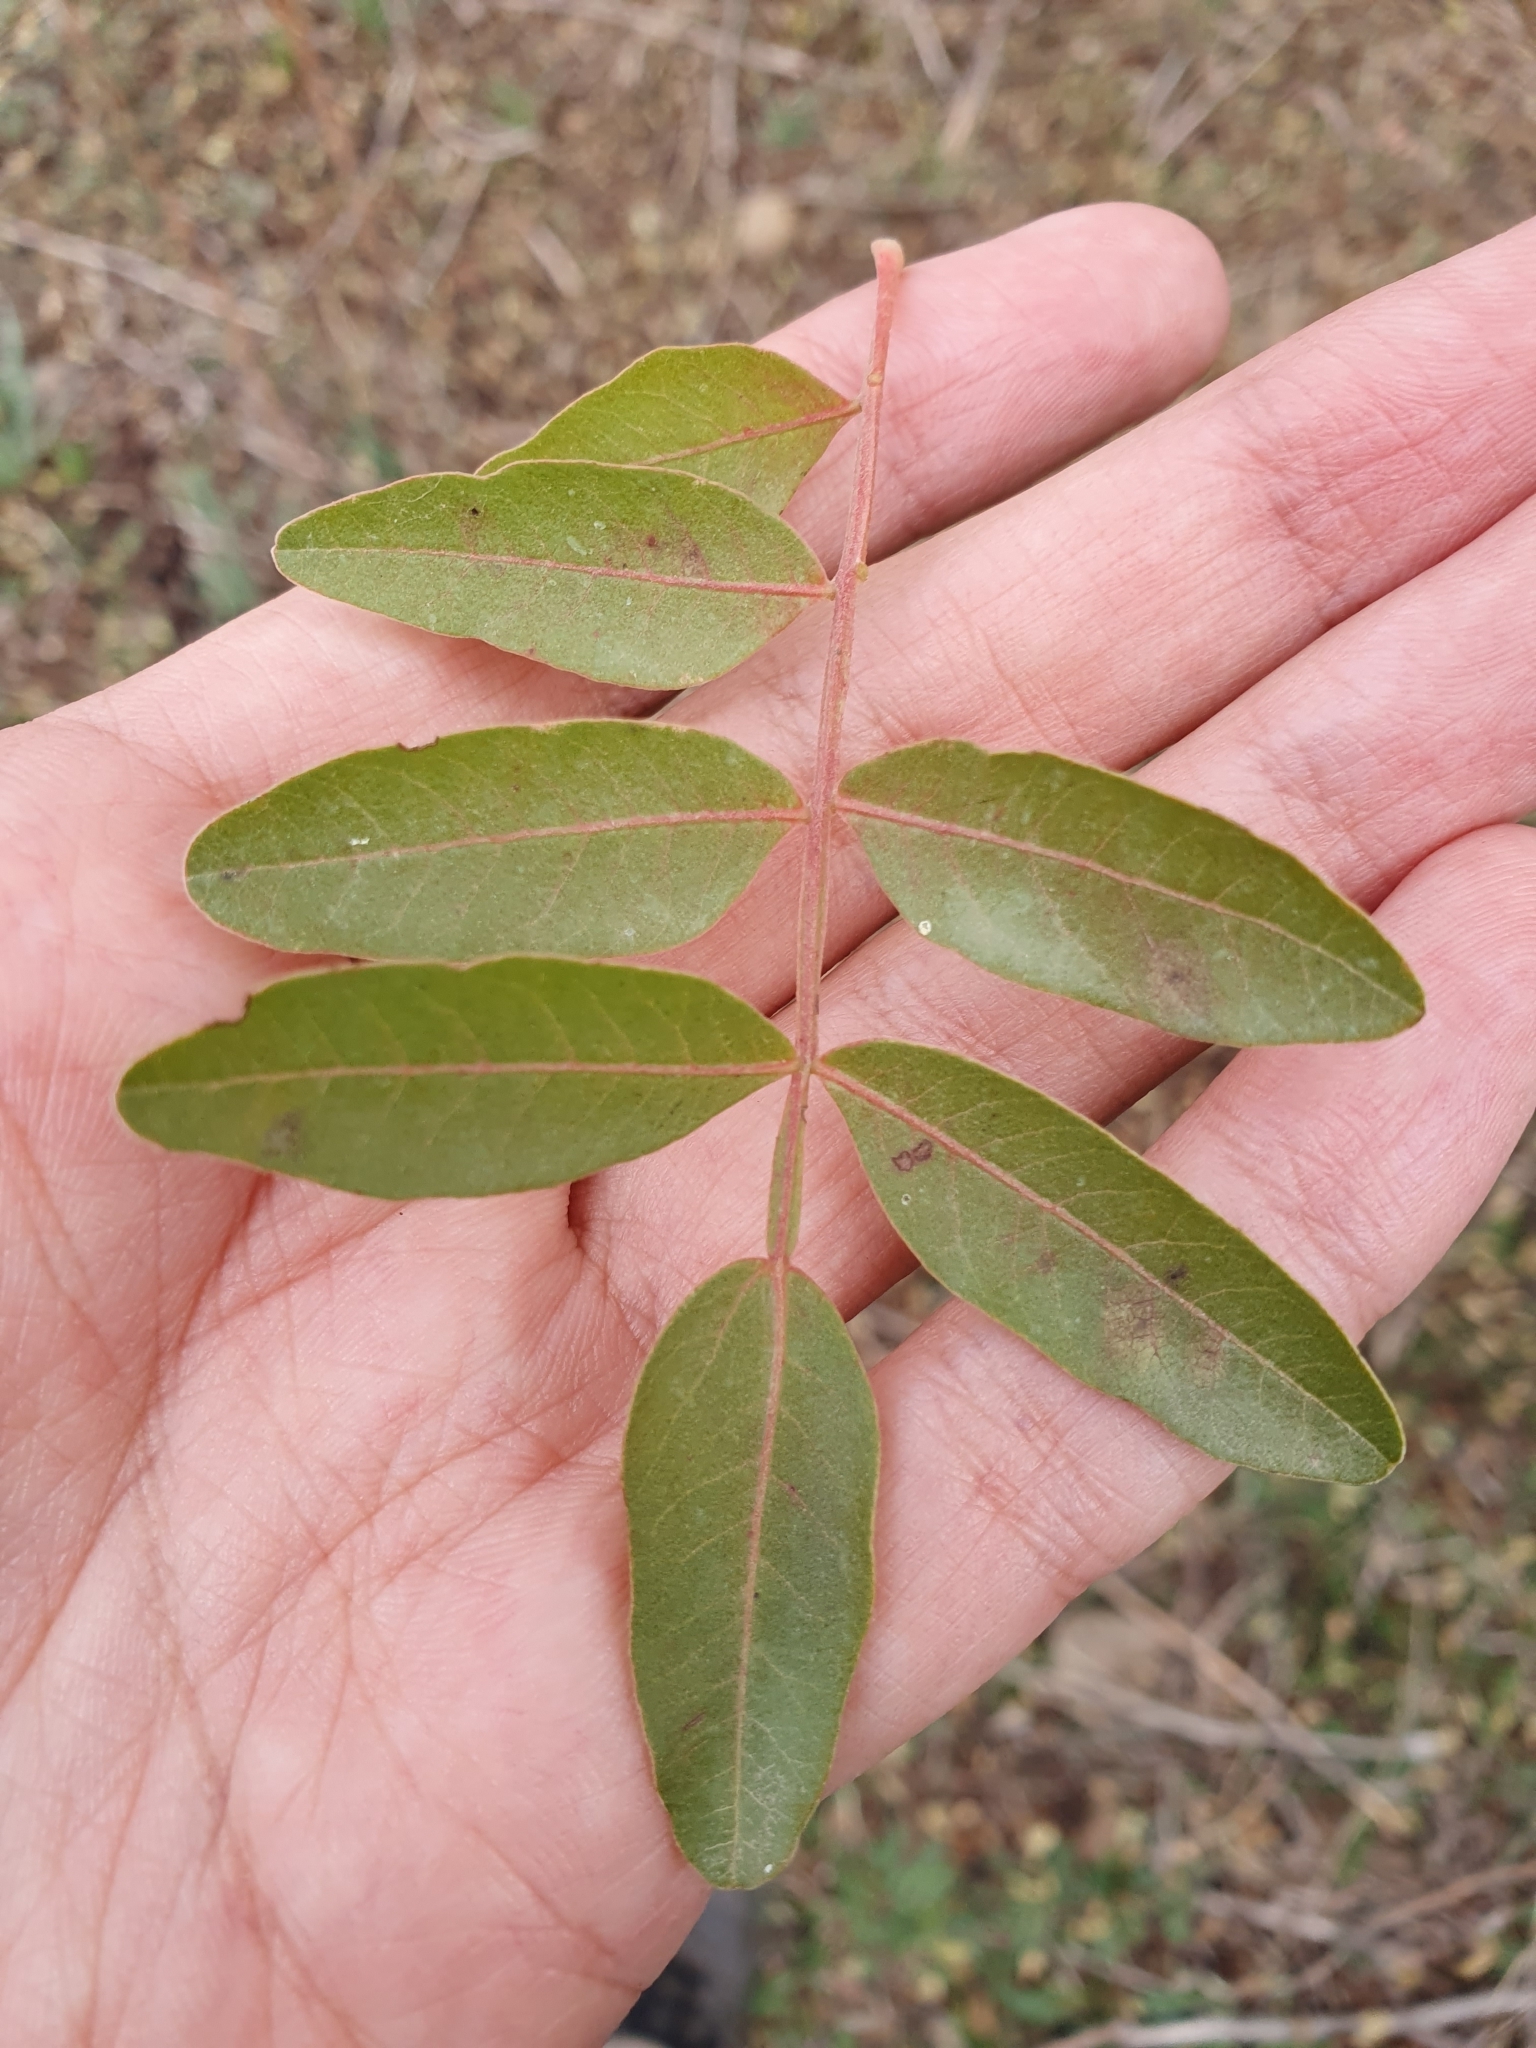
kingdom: Plantae
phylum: Tracheophyta
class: Magnoliopsida
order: Sapindales
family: Anacardiaceae
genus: Pistacia
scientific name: Pistacia atlantica
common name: Mt. atlas mastic tree
